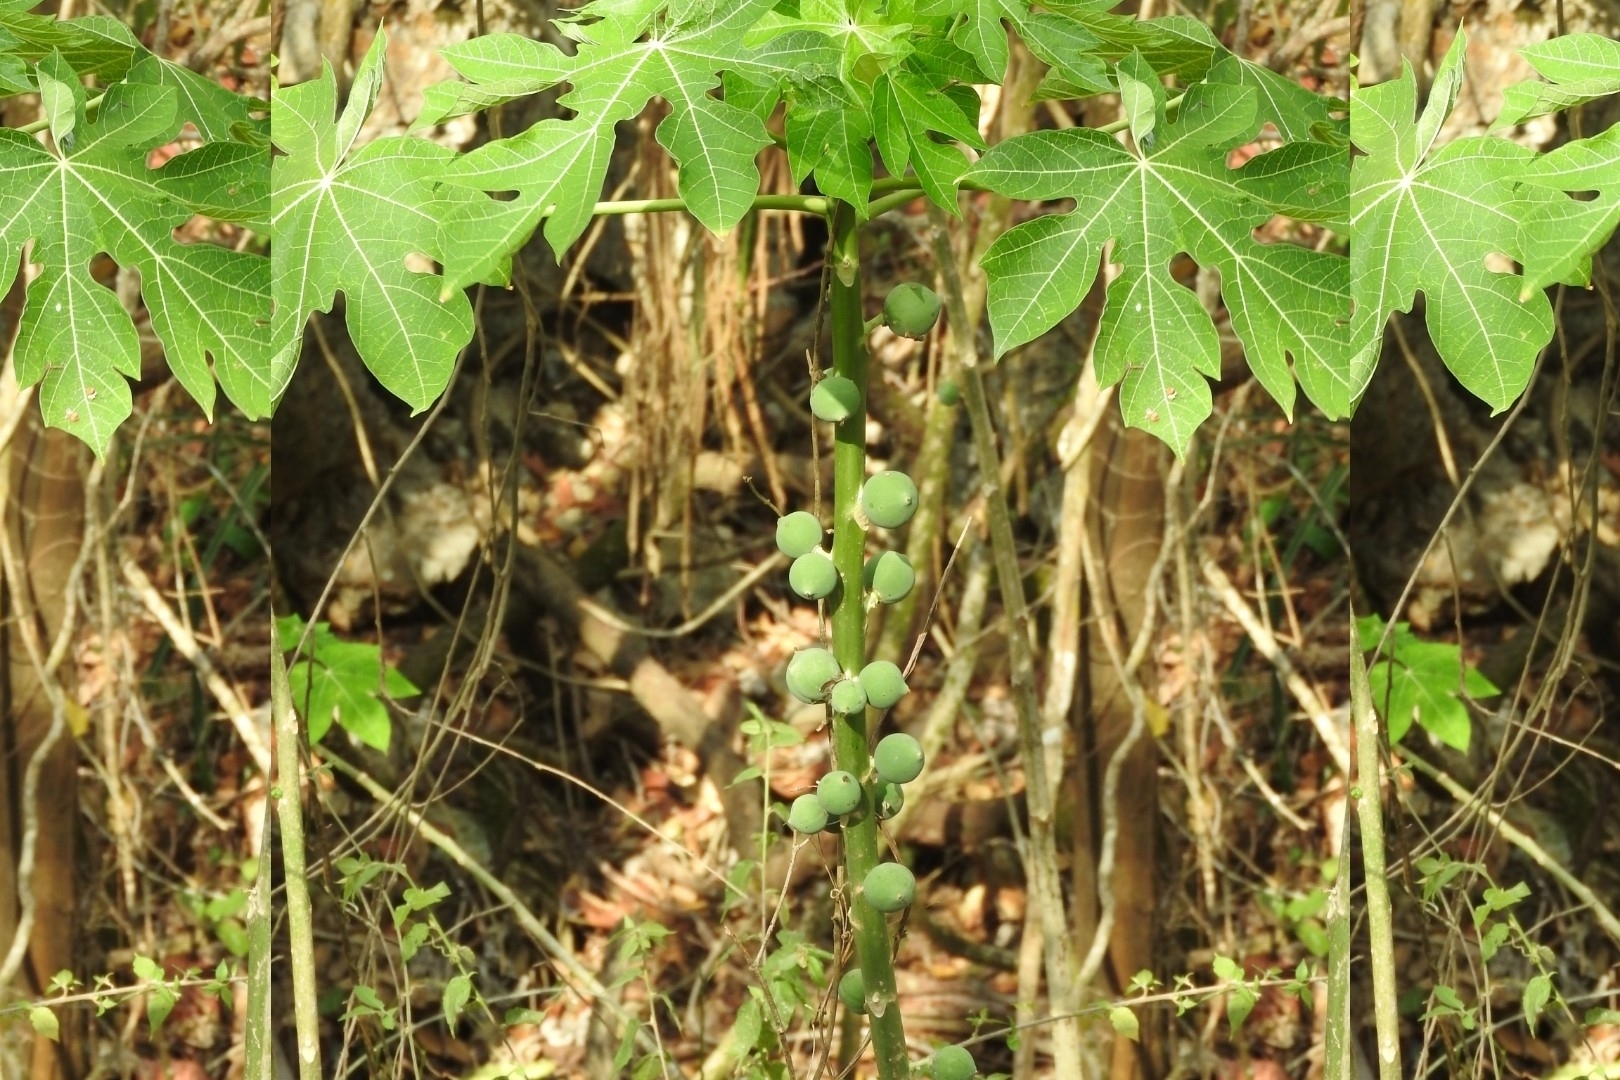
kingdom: Plantae
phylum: Tracheophyta
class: Magnoliopsida
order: Brassicales
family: Caricaceae
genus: Carica
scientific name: Carica papaya
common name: Papaya
